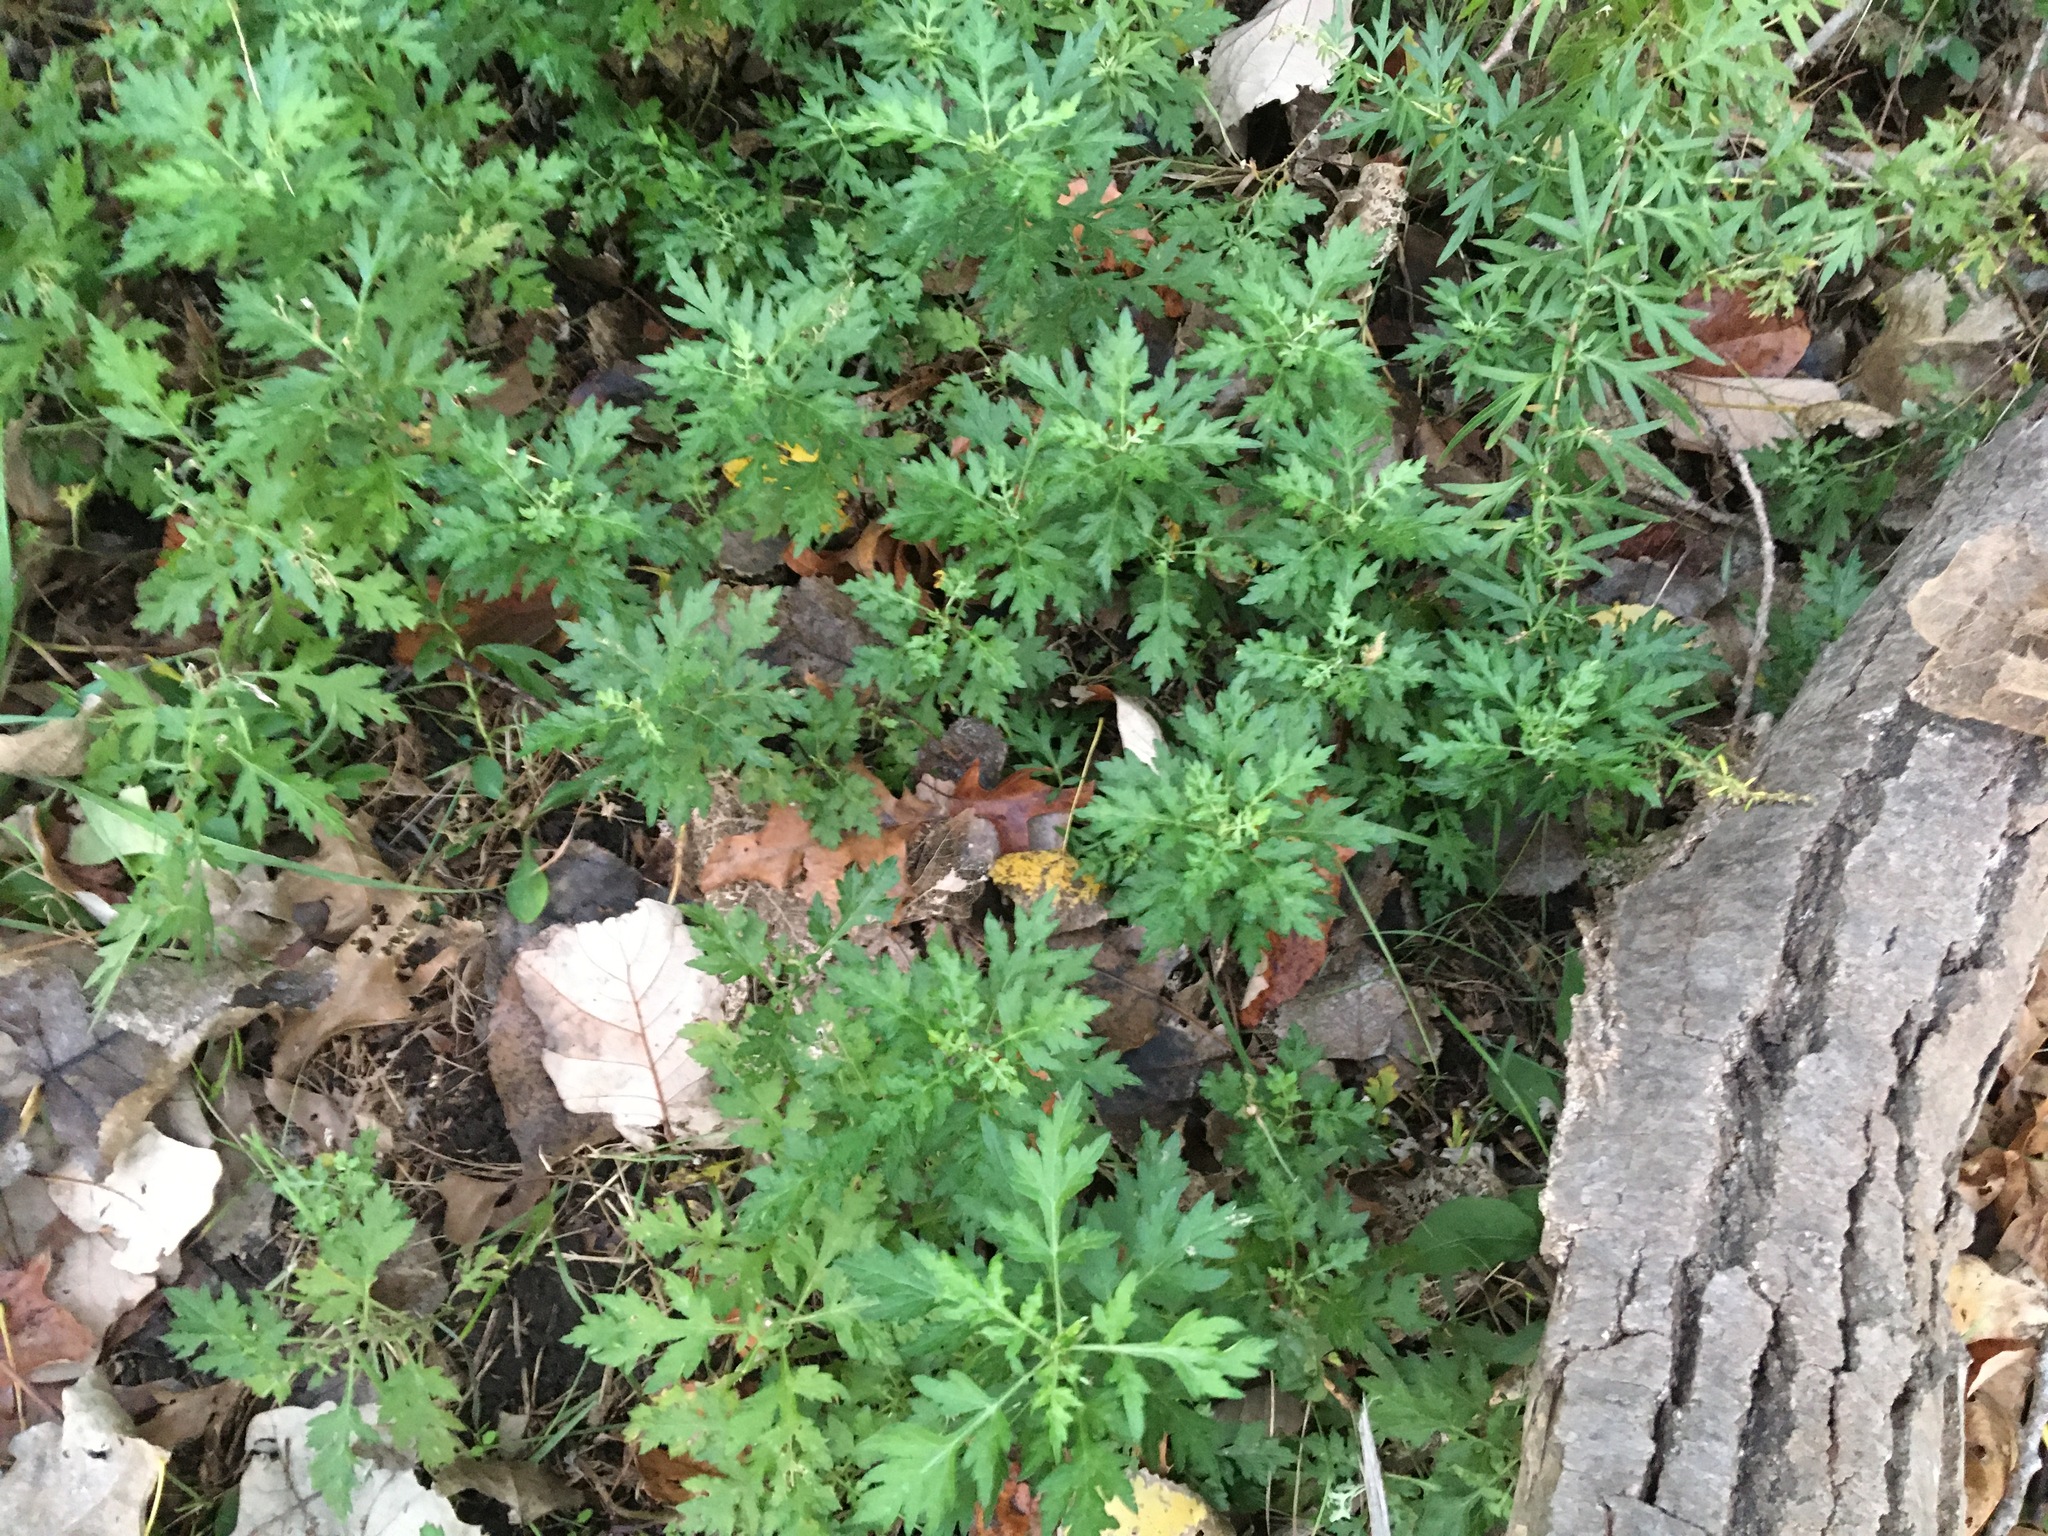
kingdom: Plantae
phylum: Tracheophyta
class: Magnoliopsida
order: Asterales
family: Asteraceae
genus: Artemisia
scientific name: Artemisia vulgaris
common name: Mugwort
